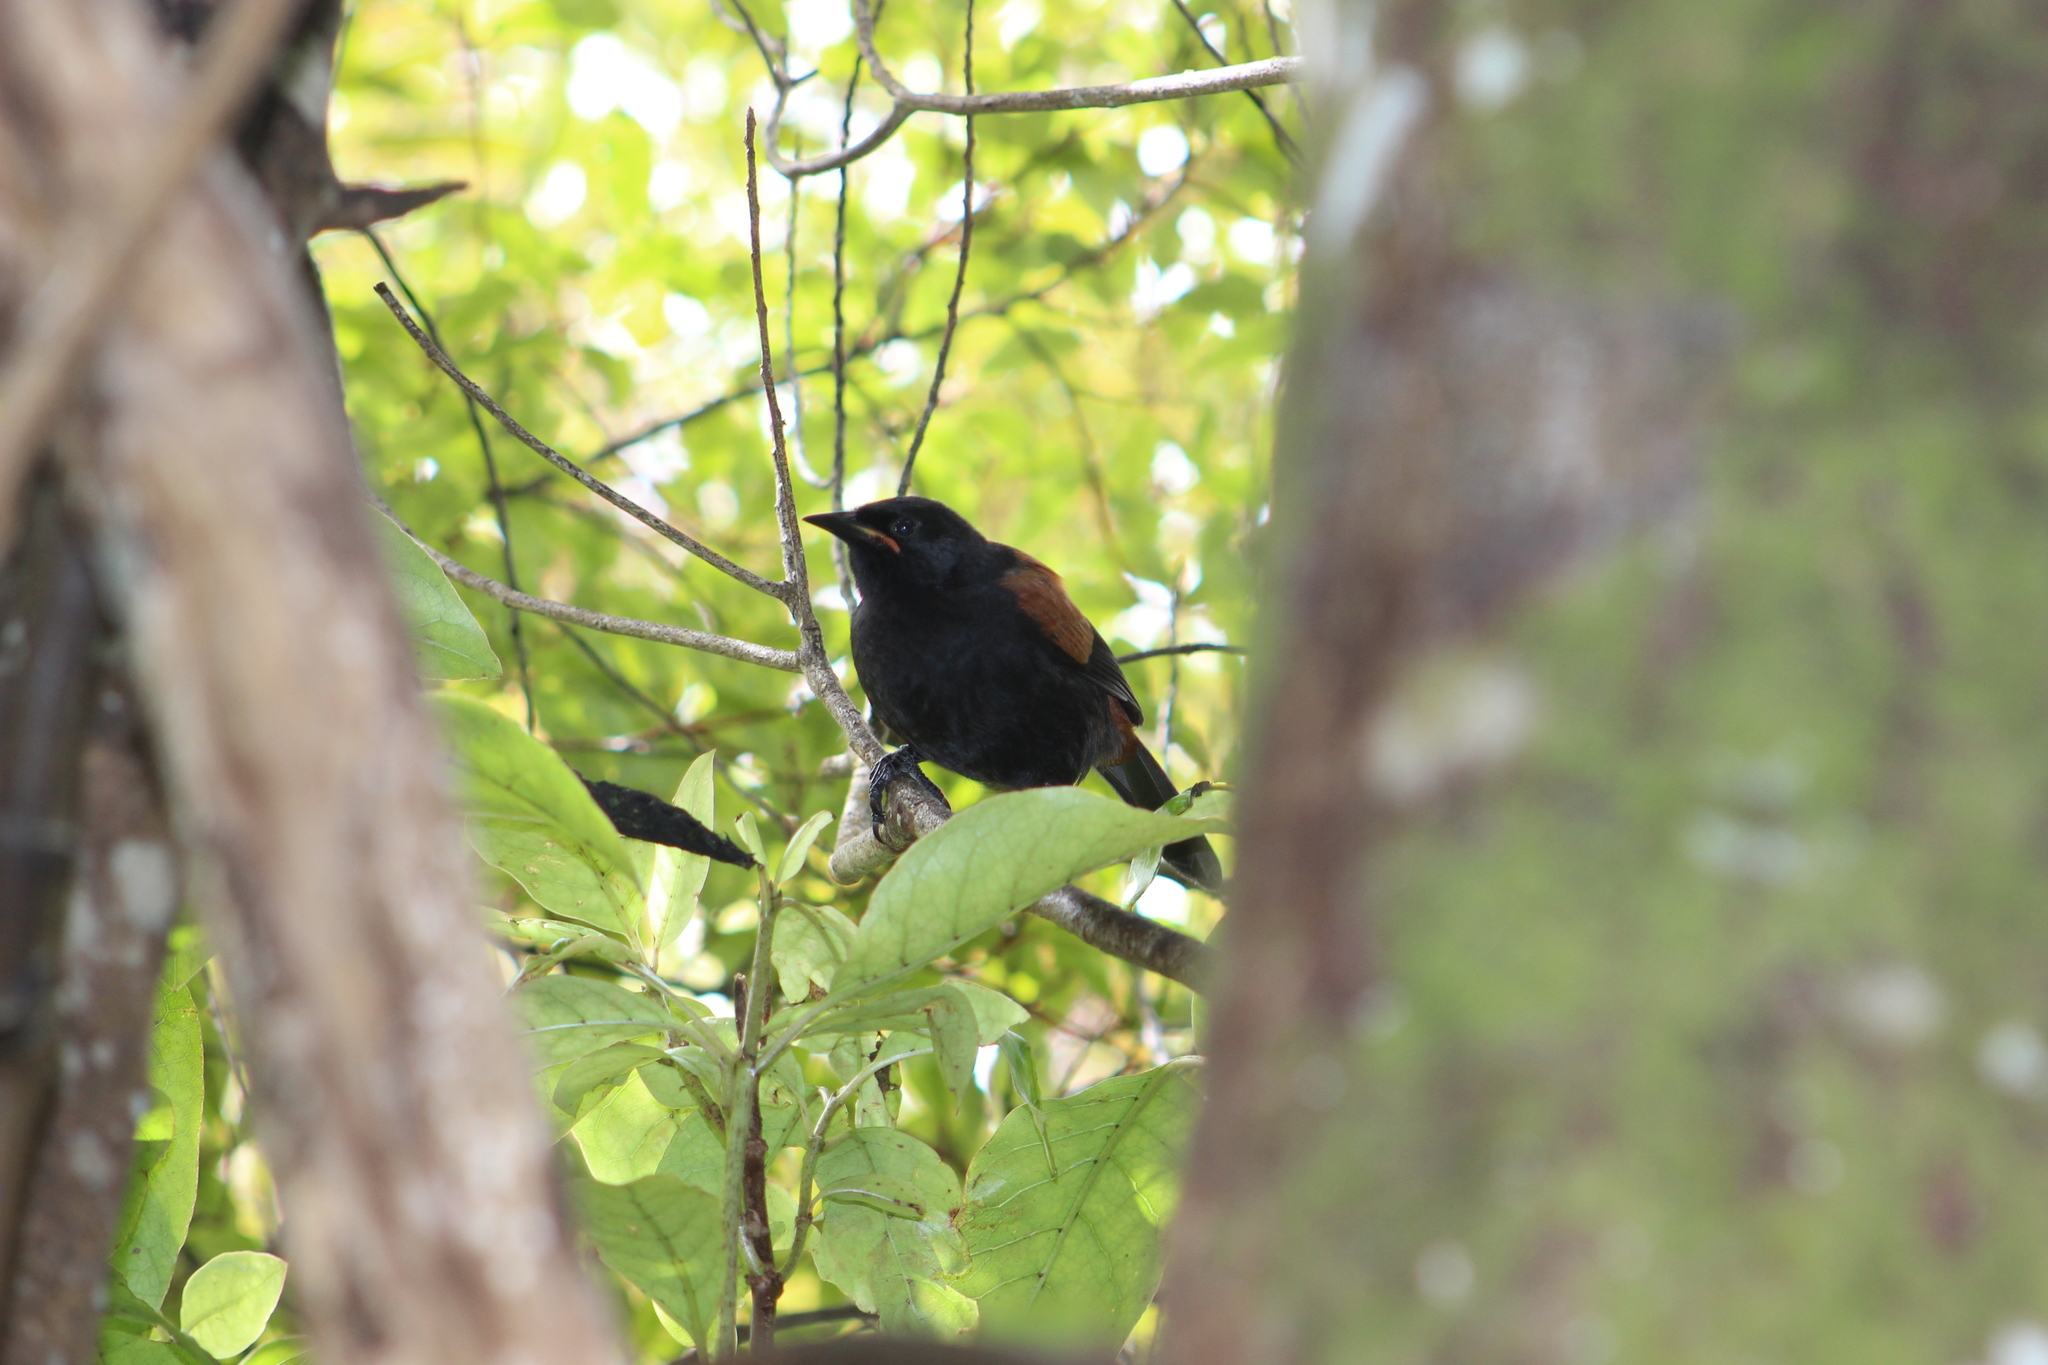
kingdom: Animalia
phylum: Chordata
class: Aves
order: Passeriformes
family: Callaeatidae
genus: Philesturnus
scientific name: Philesturnus carunculatus
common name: South island saddleback
